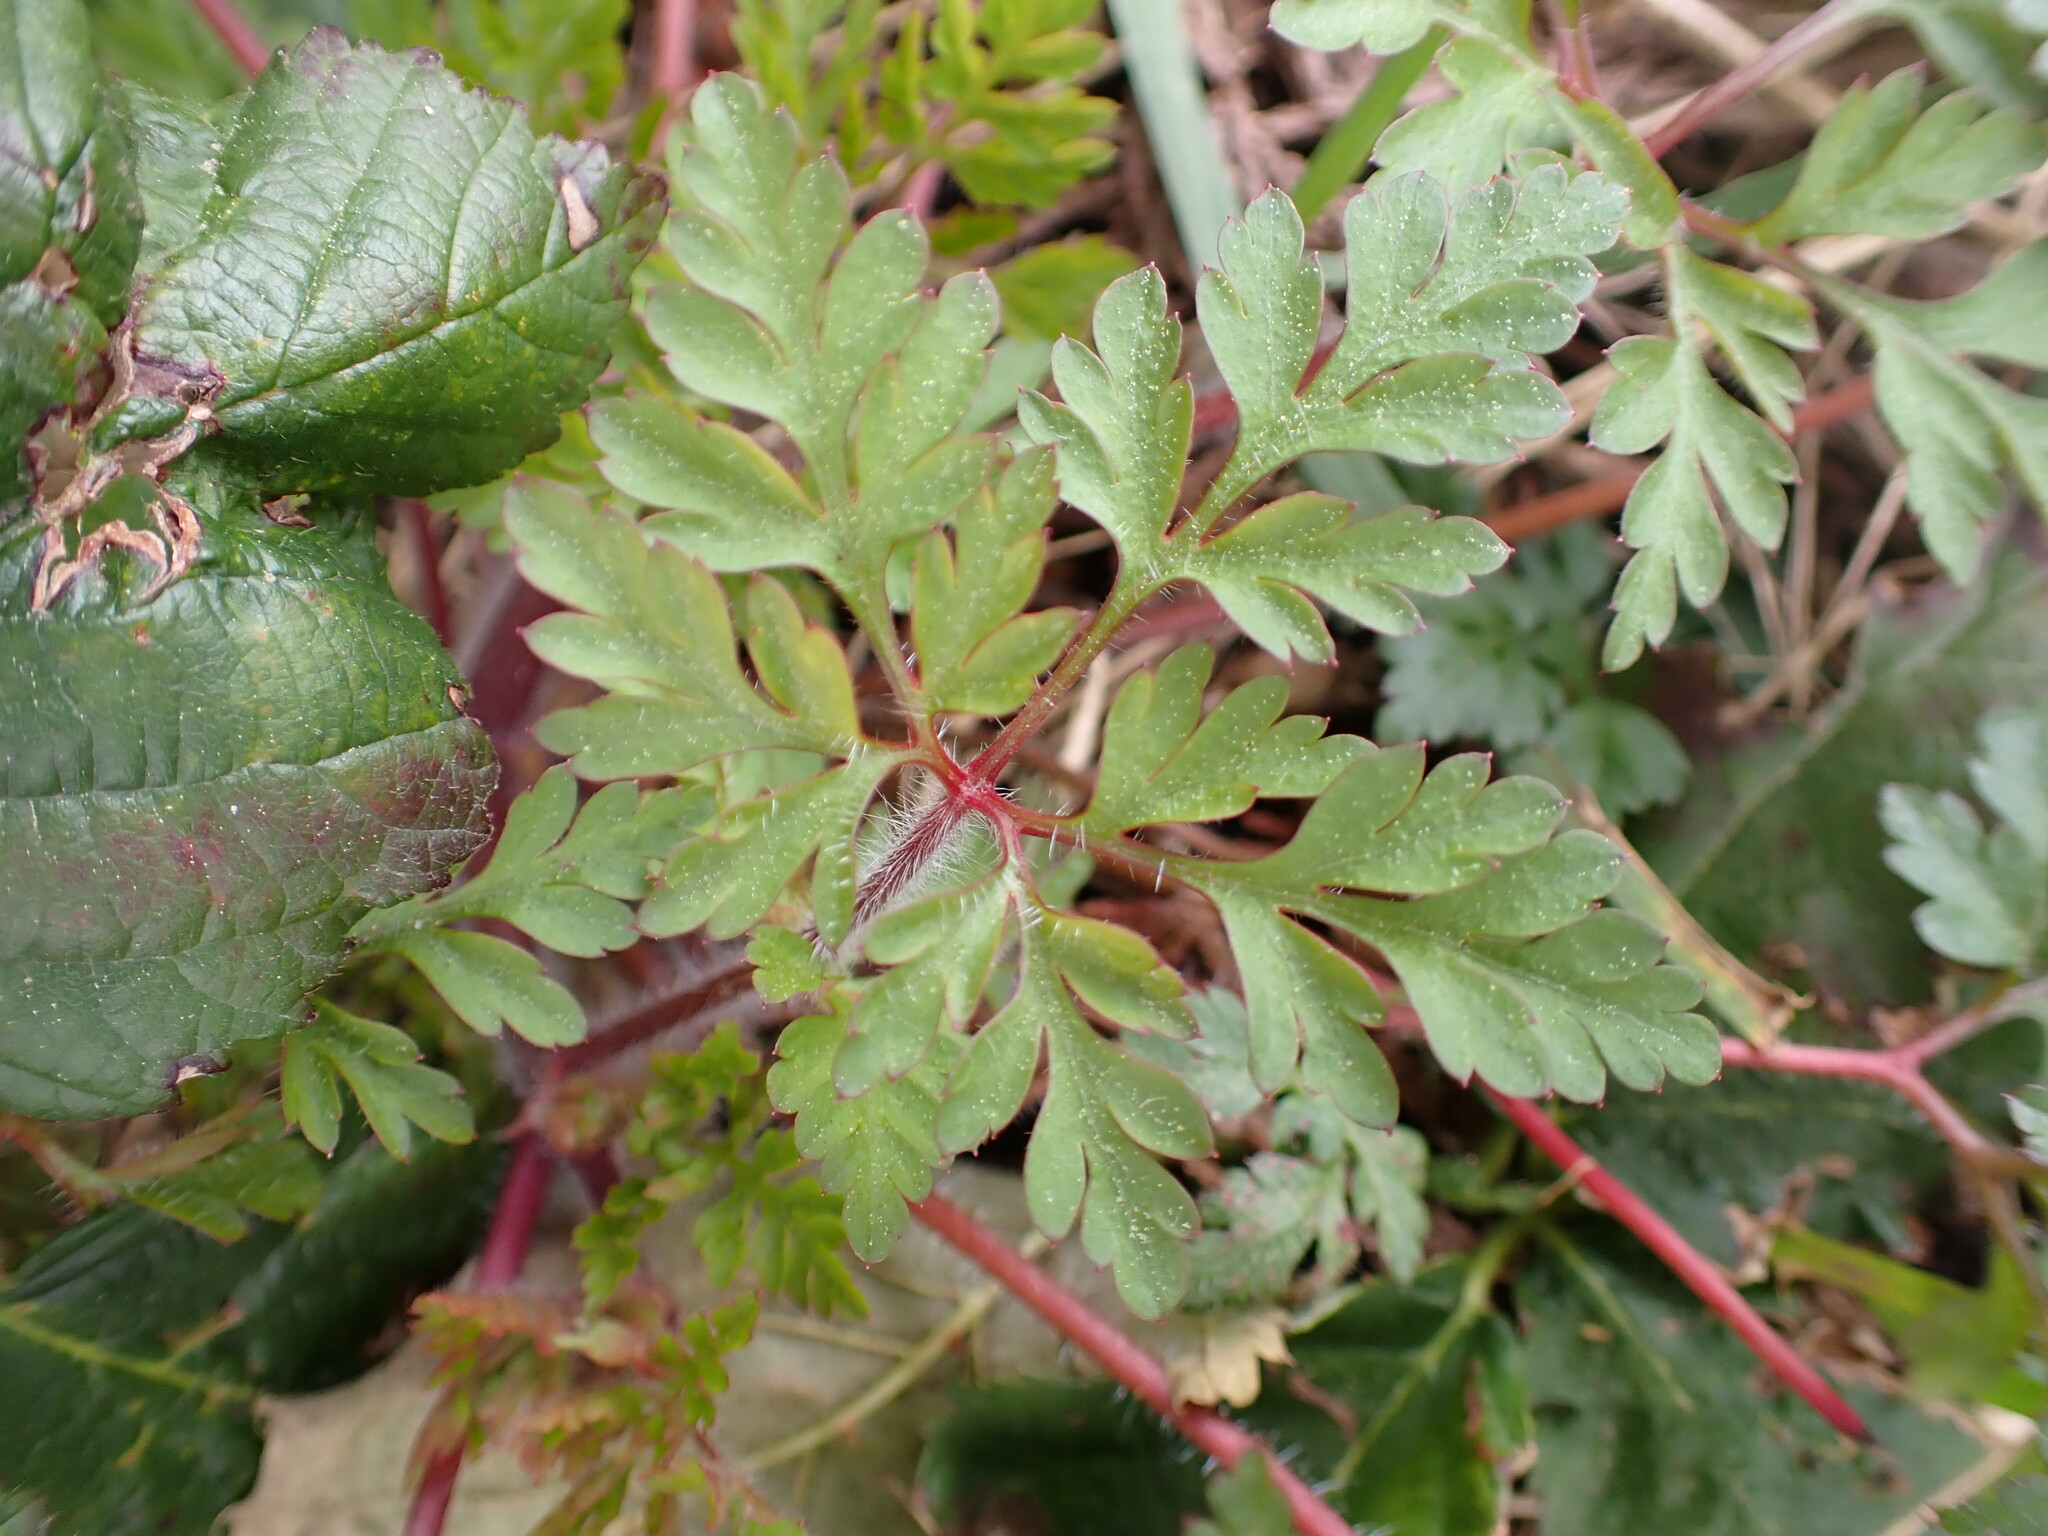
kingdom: Plantae
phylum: Tracheophyta
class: Magnoliopsida
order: Geraniales
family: Geraniaceae
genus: Geranium
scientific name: Geranium robertianum
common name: Herb-robert
